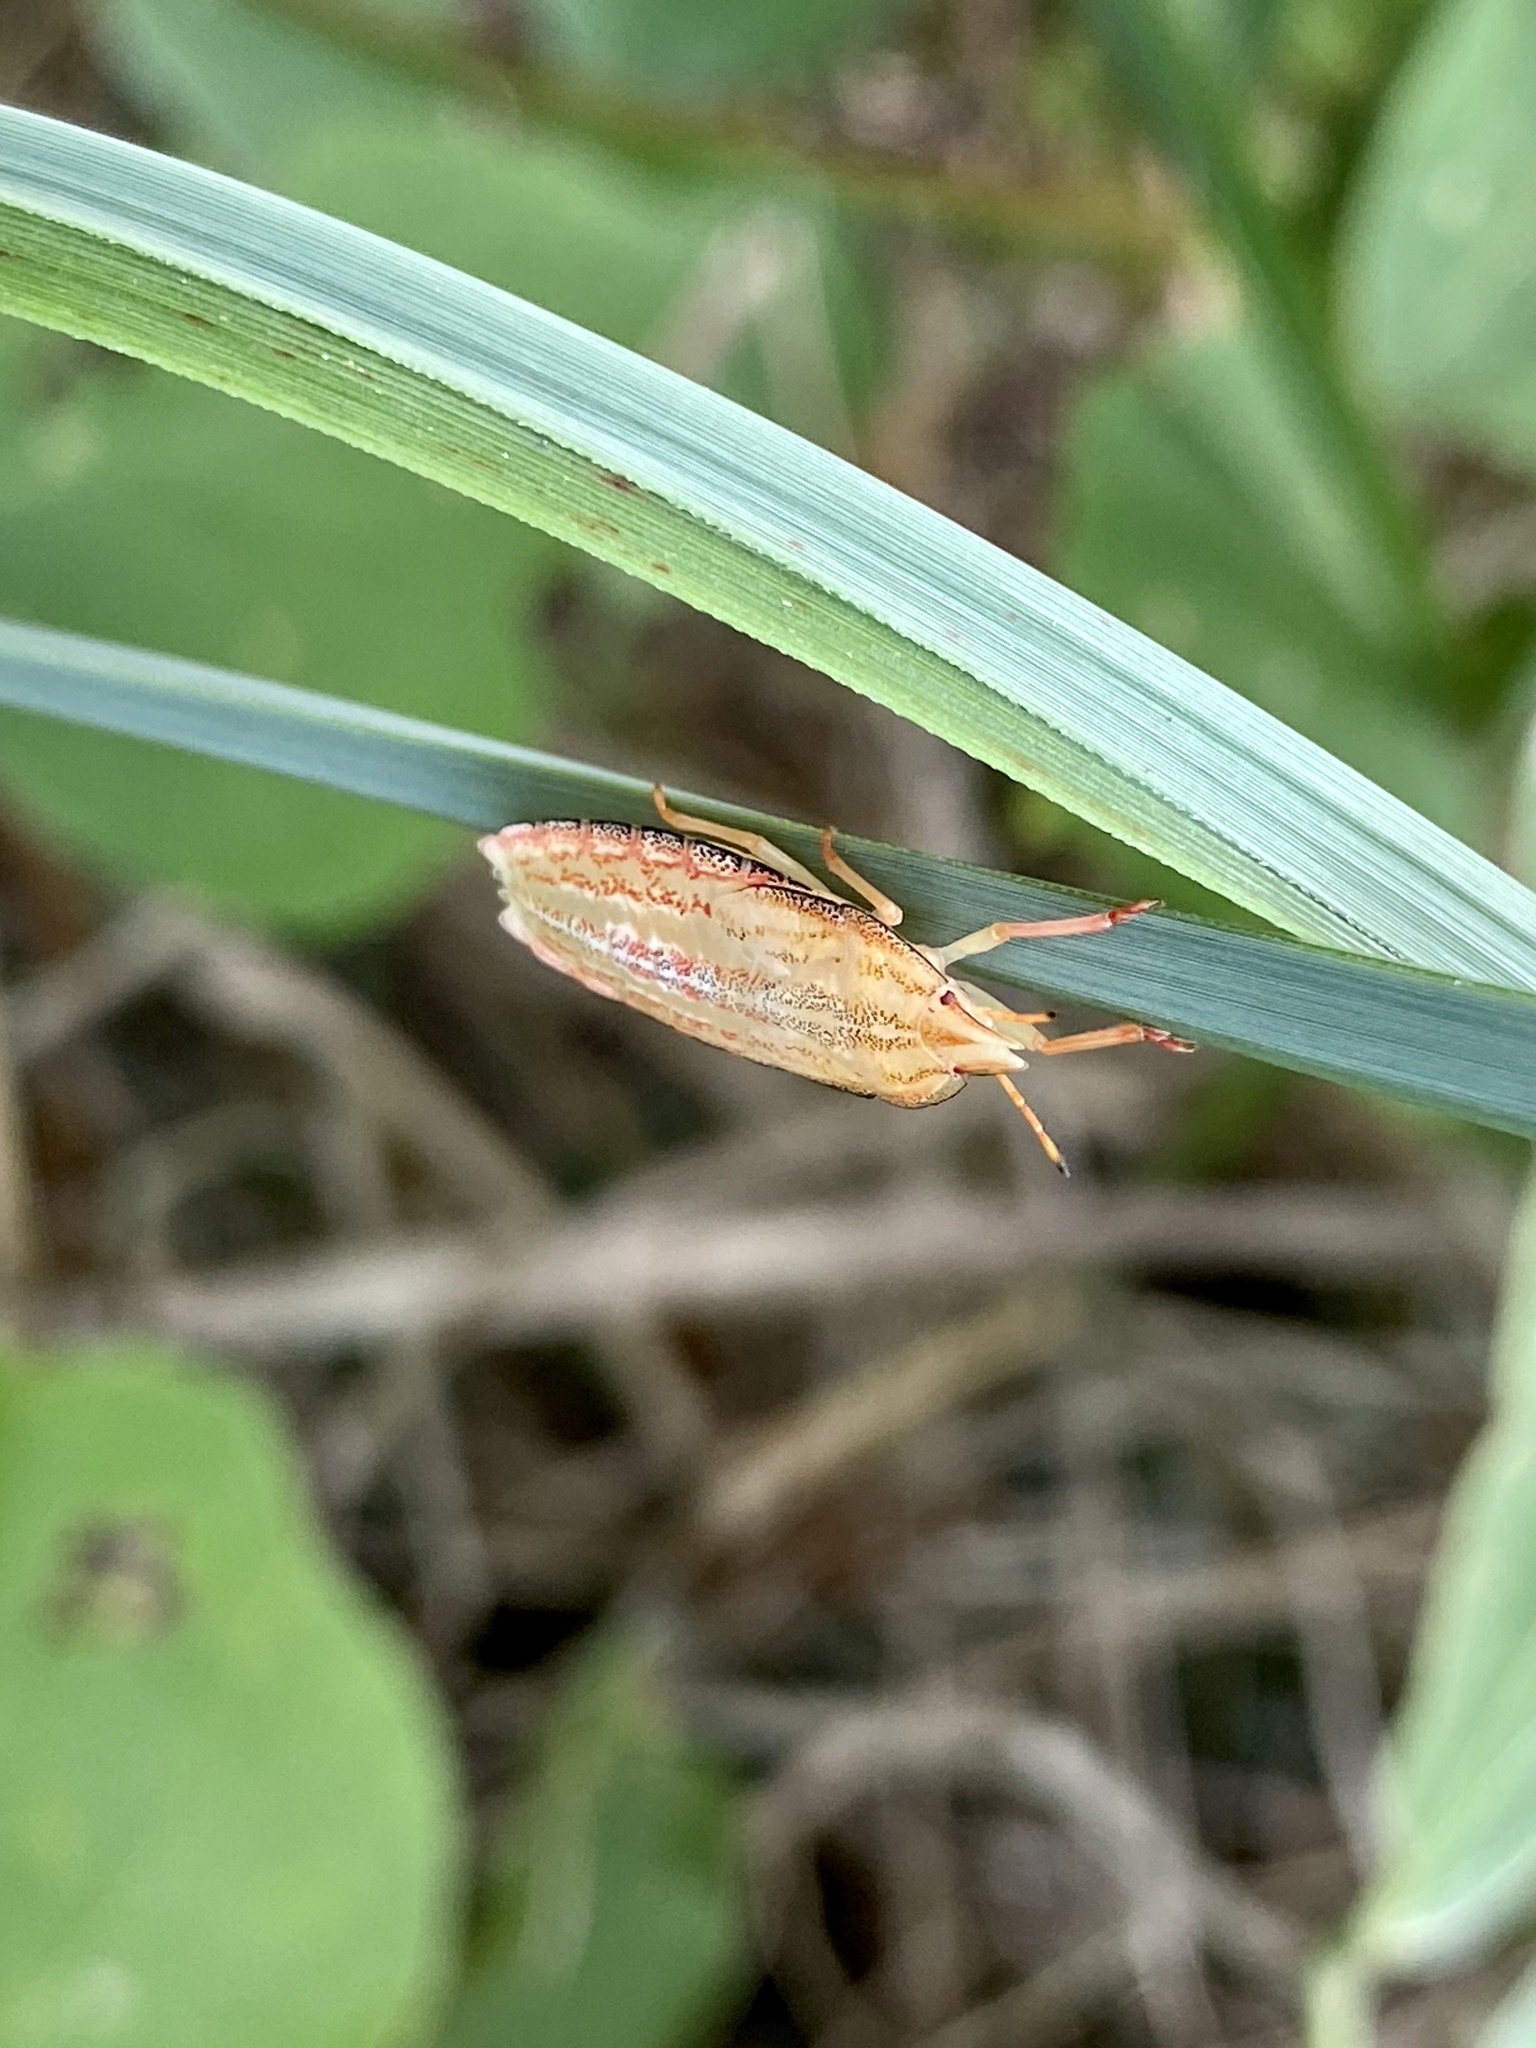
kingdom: Animalia
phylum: Arthropoda
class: Insecta
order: Hemiptera
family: Pentatomidae
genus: Gonopsis
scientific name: Gonopsis affinis
